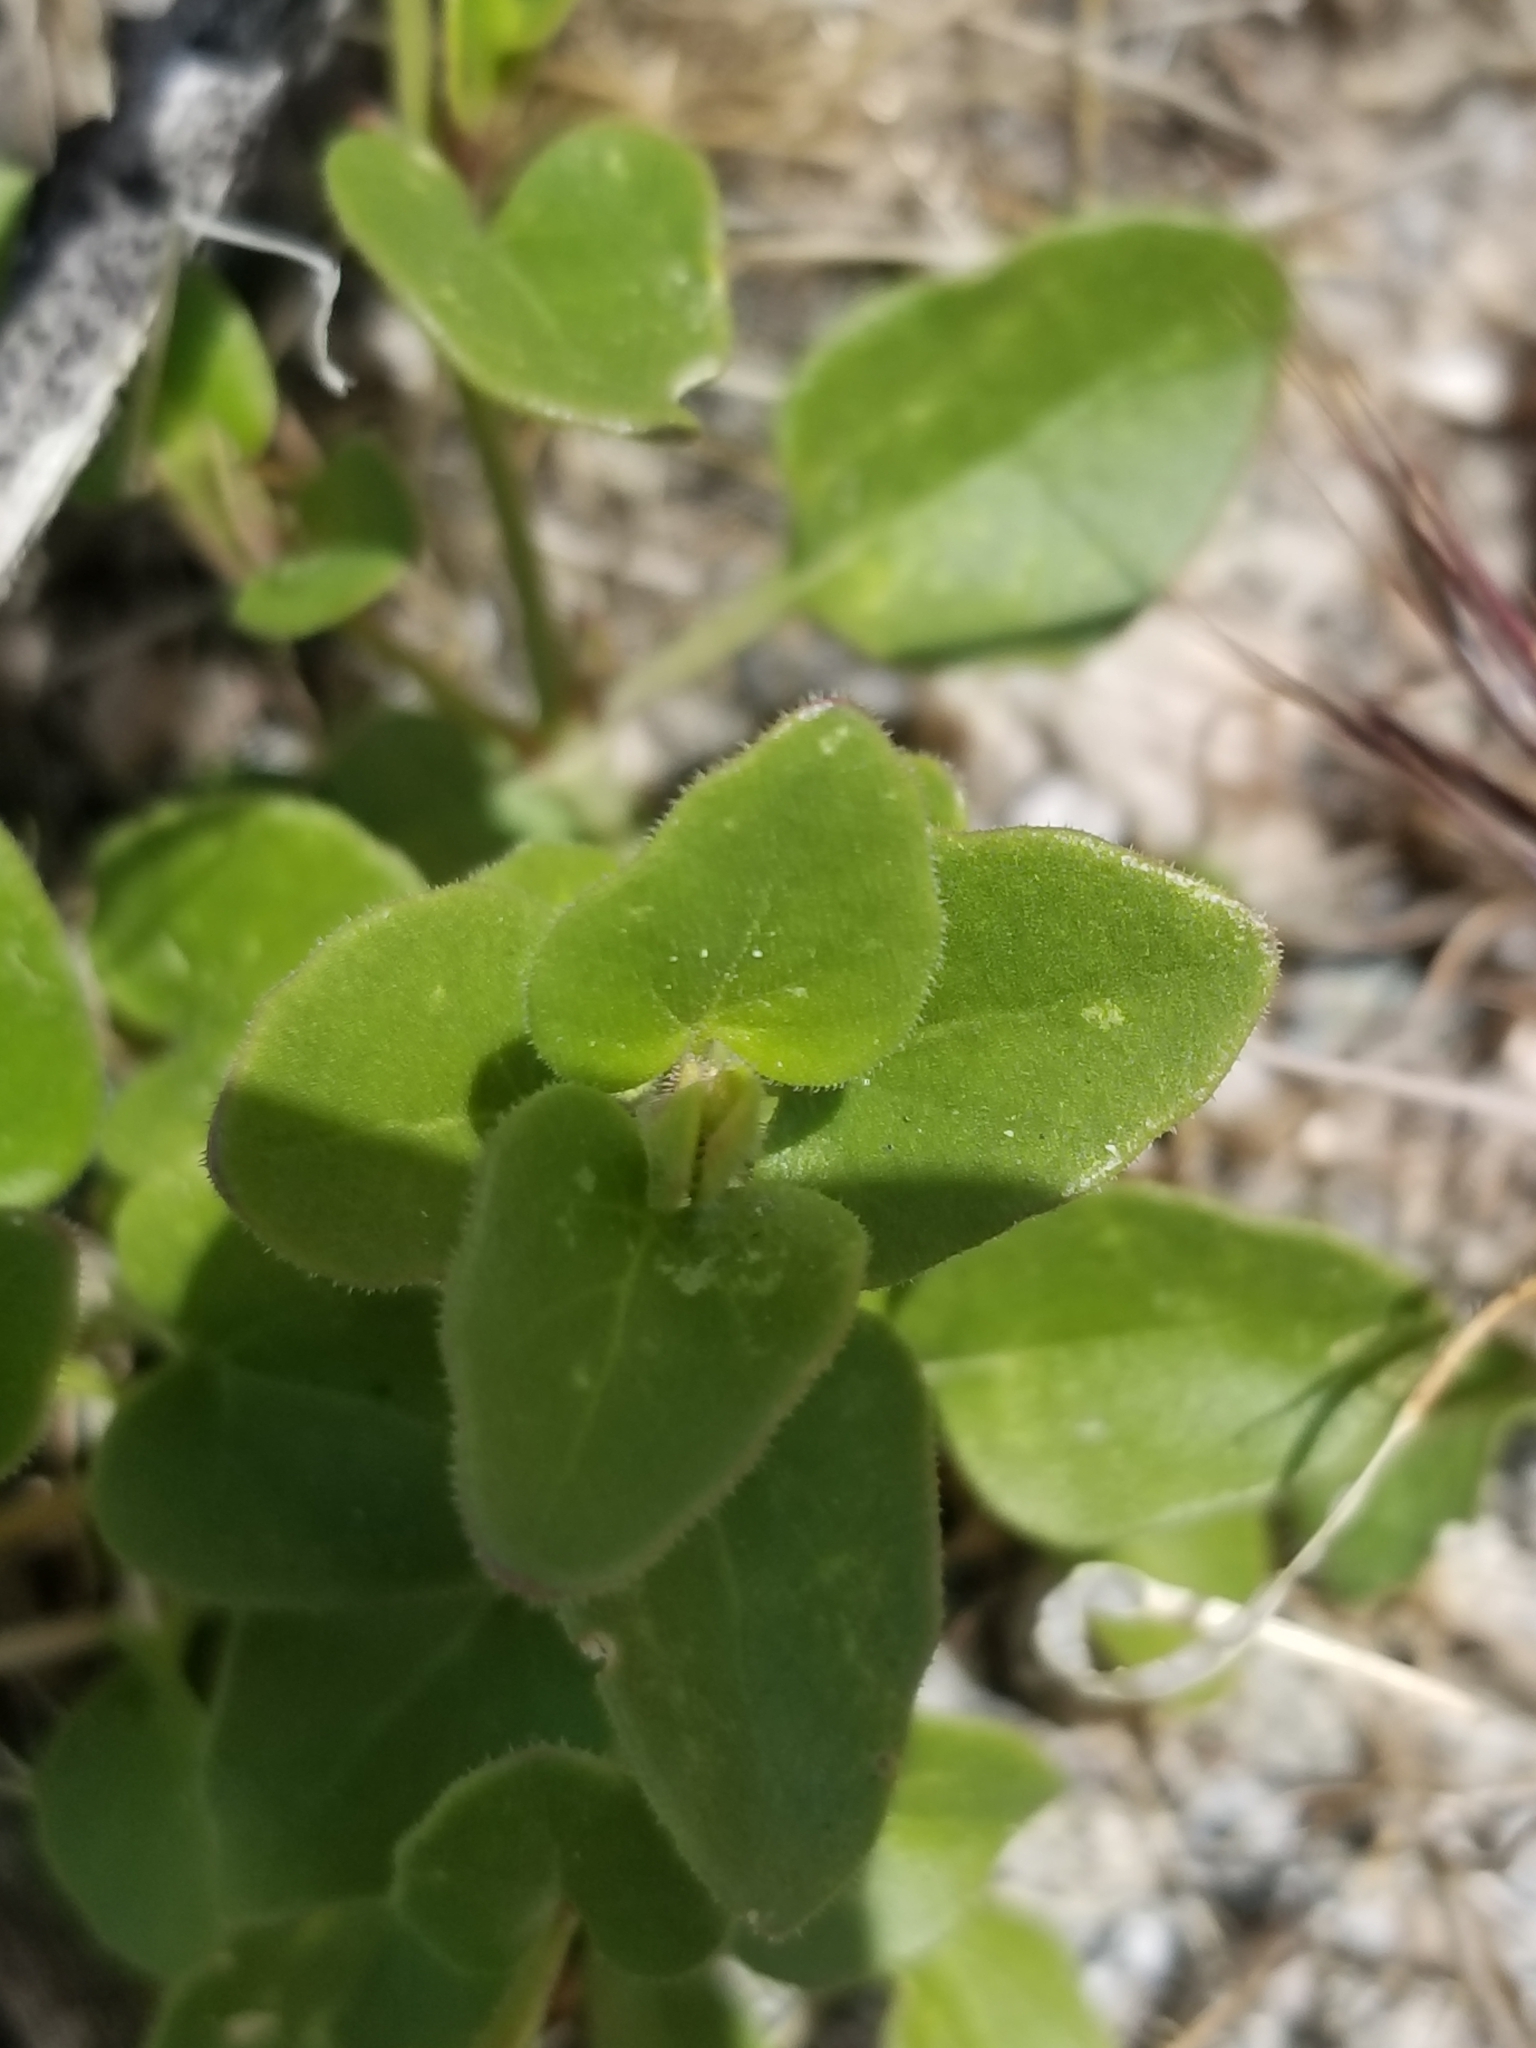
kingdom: Plantae
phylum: Tracheophyta
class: Magnoliopsida
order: Caryophyllales
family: Nyctaginaceae
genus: Mirabilis
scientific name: Mirabilis laevis
